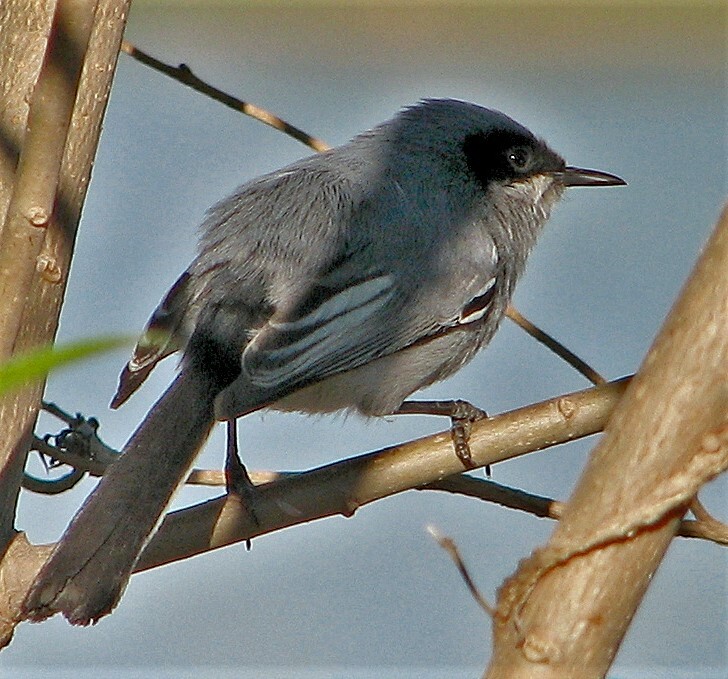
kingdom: Animalia
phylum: Chordata
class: Aves
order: Passeriformes
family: Polioptilidae
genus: Polioptila
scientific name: Polioptila dumicola
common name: Masked gnatcatcher
